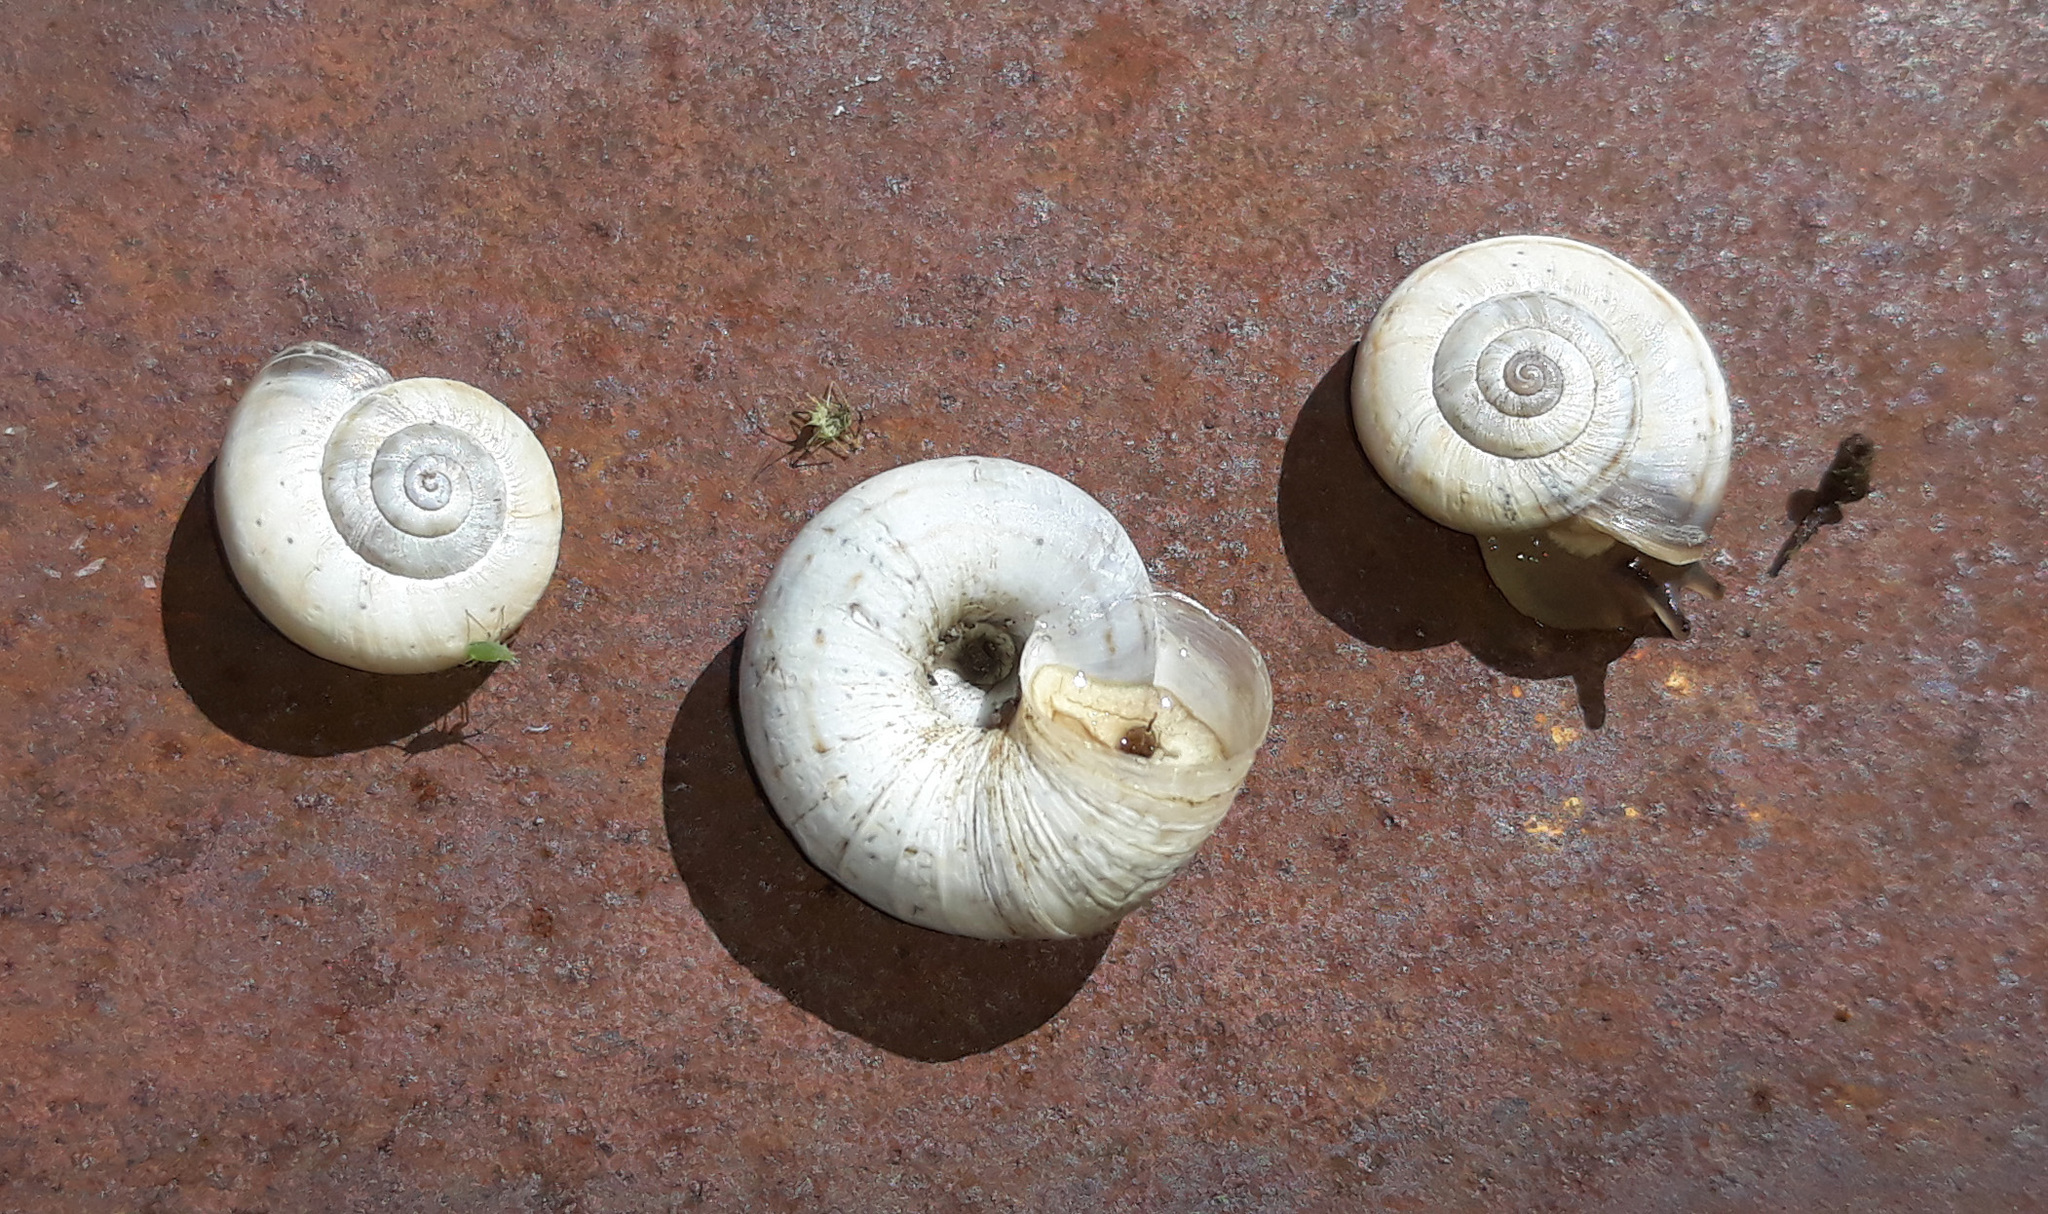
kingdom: Animalia
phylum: Mollusca
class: Gastropoda
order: Stylommatophora
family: Geomitridae
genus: Xerolenta
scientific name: Xerolenta obvia
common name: White heath snail
